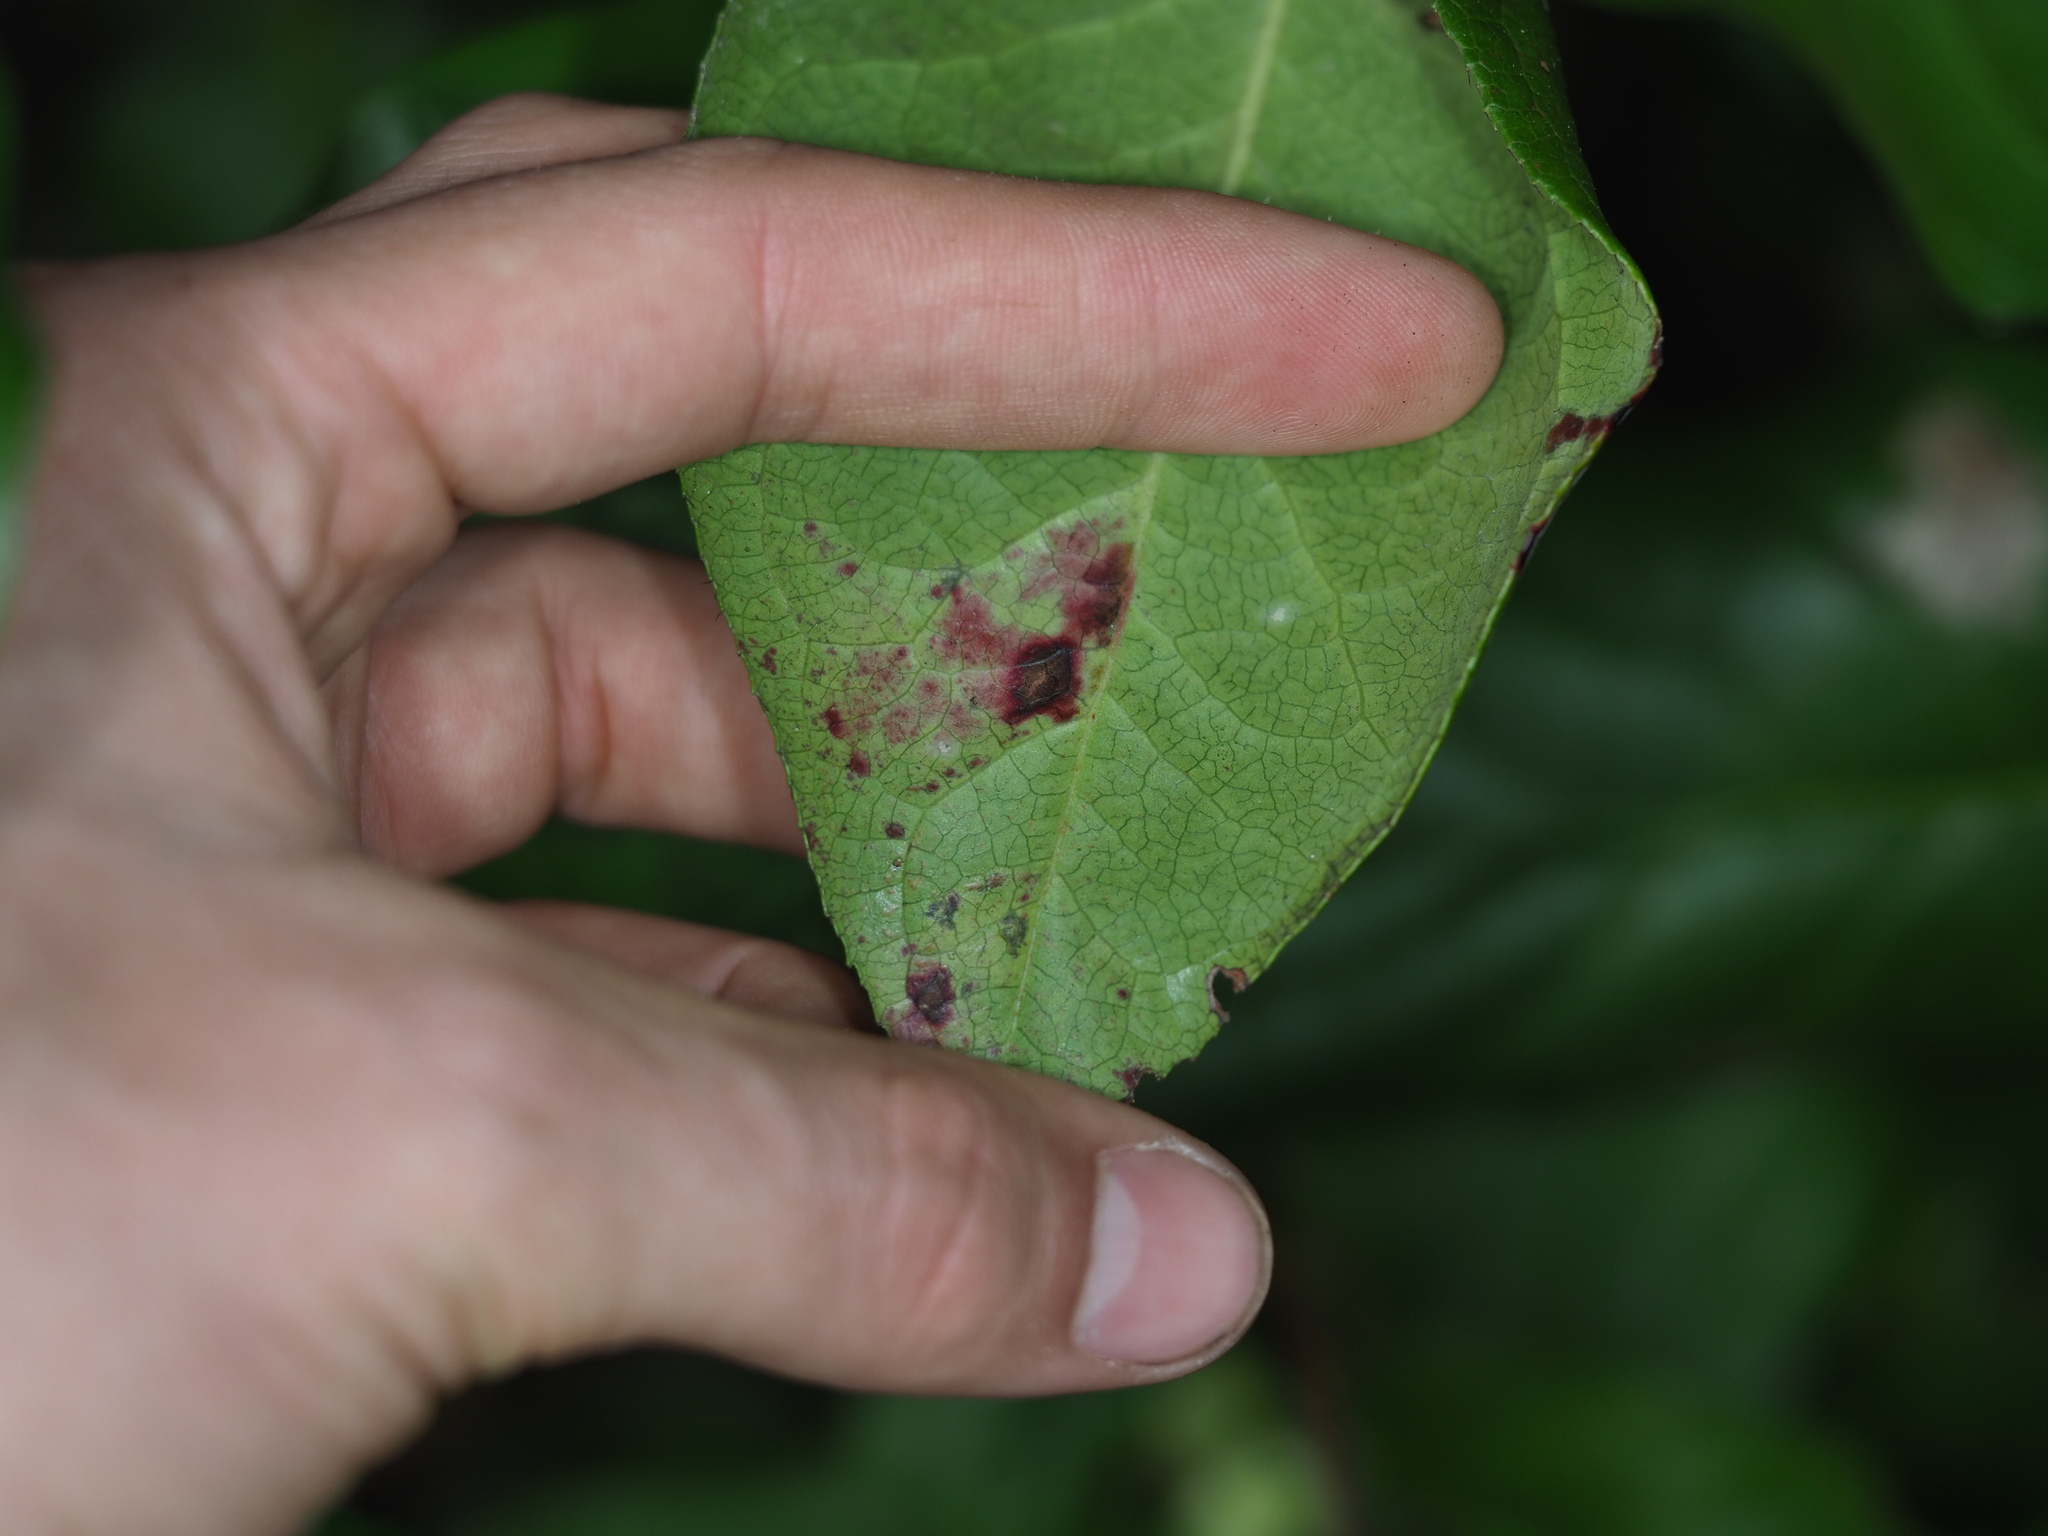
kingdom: Animalia
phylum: Arthropoda
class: Insecta
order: Lepidoptera
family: Gracillariidae
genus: Marmara
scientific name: Marmara arbutiella
